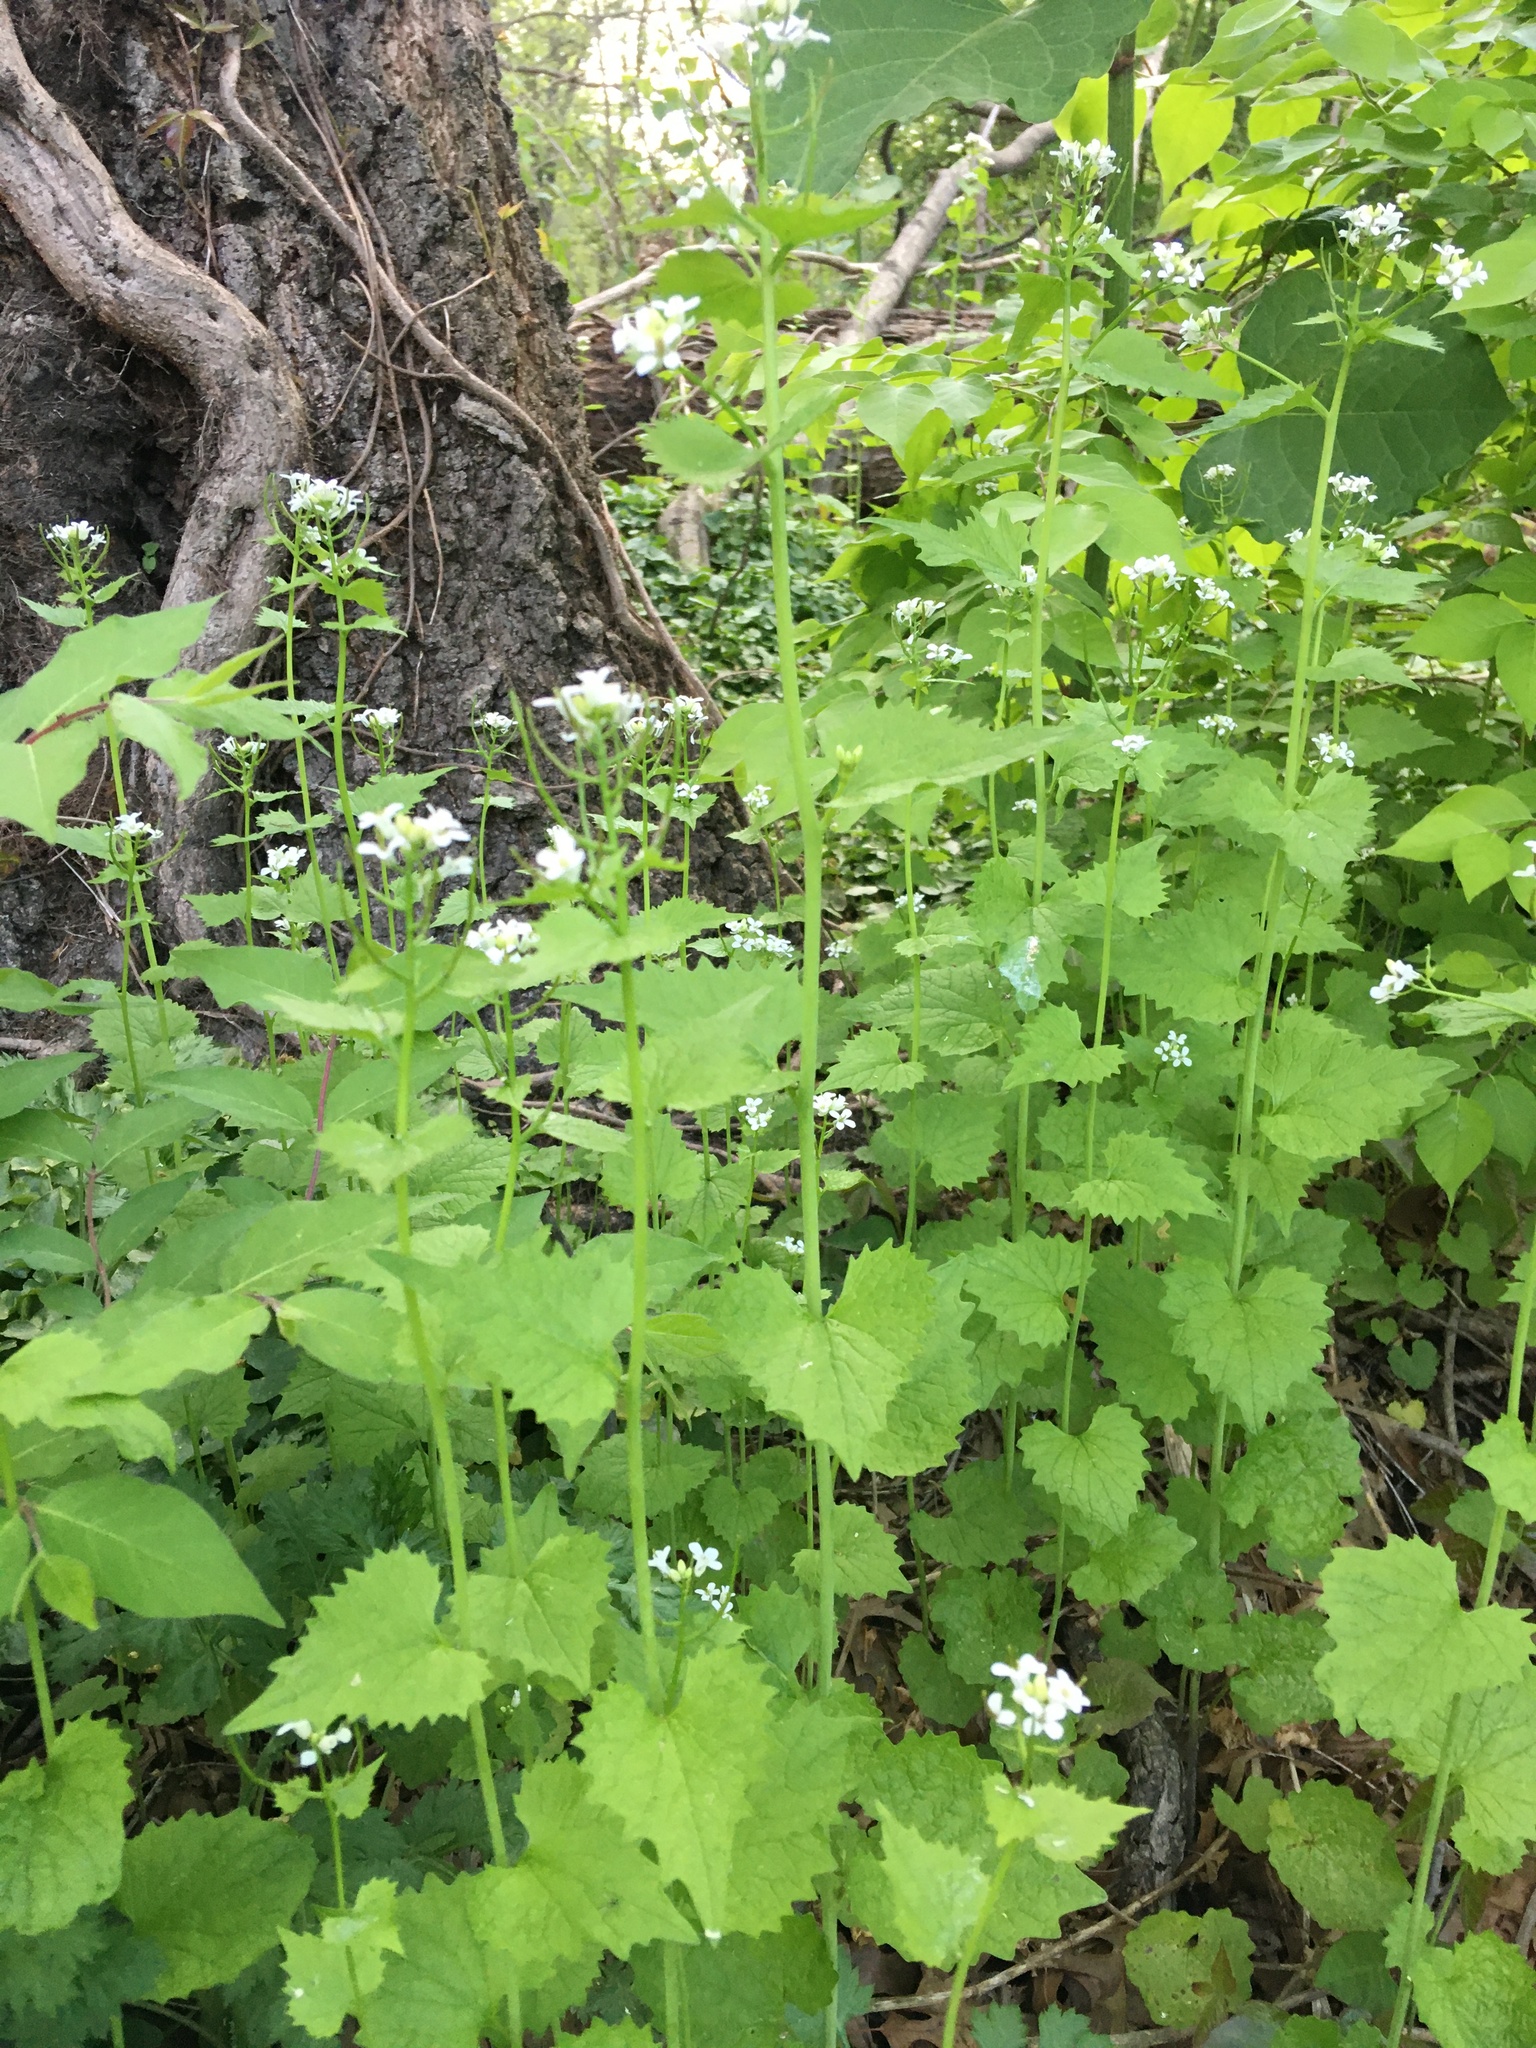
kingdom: Plantae
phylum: Tracheophyta
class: Magnoliopsida
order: Brassicales
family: Brassicaceae
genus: Alliaria
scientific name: Alliaria petiolata
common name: Garlic mustard
